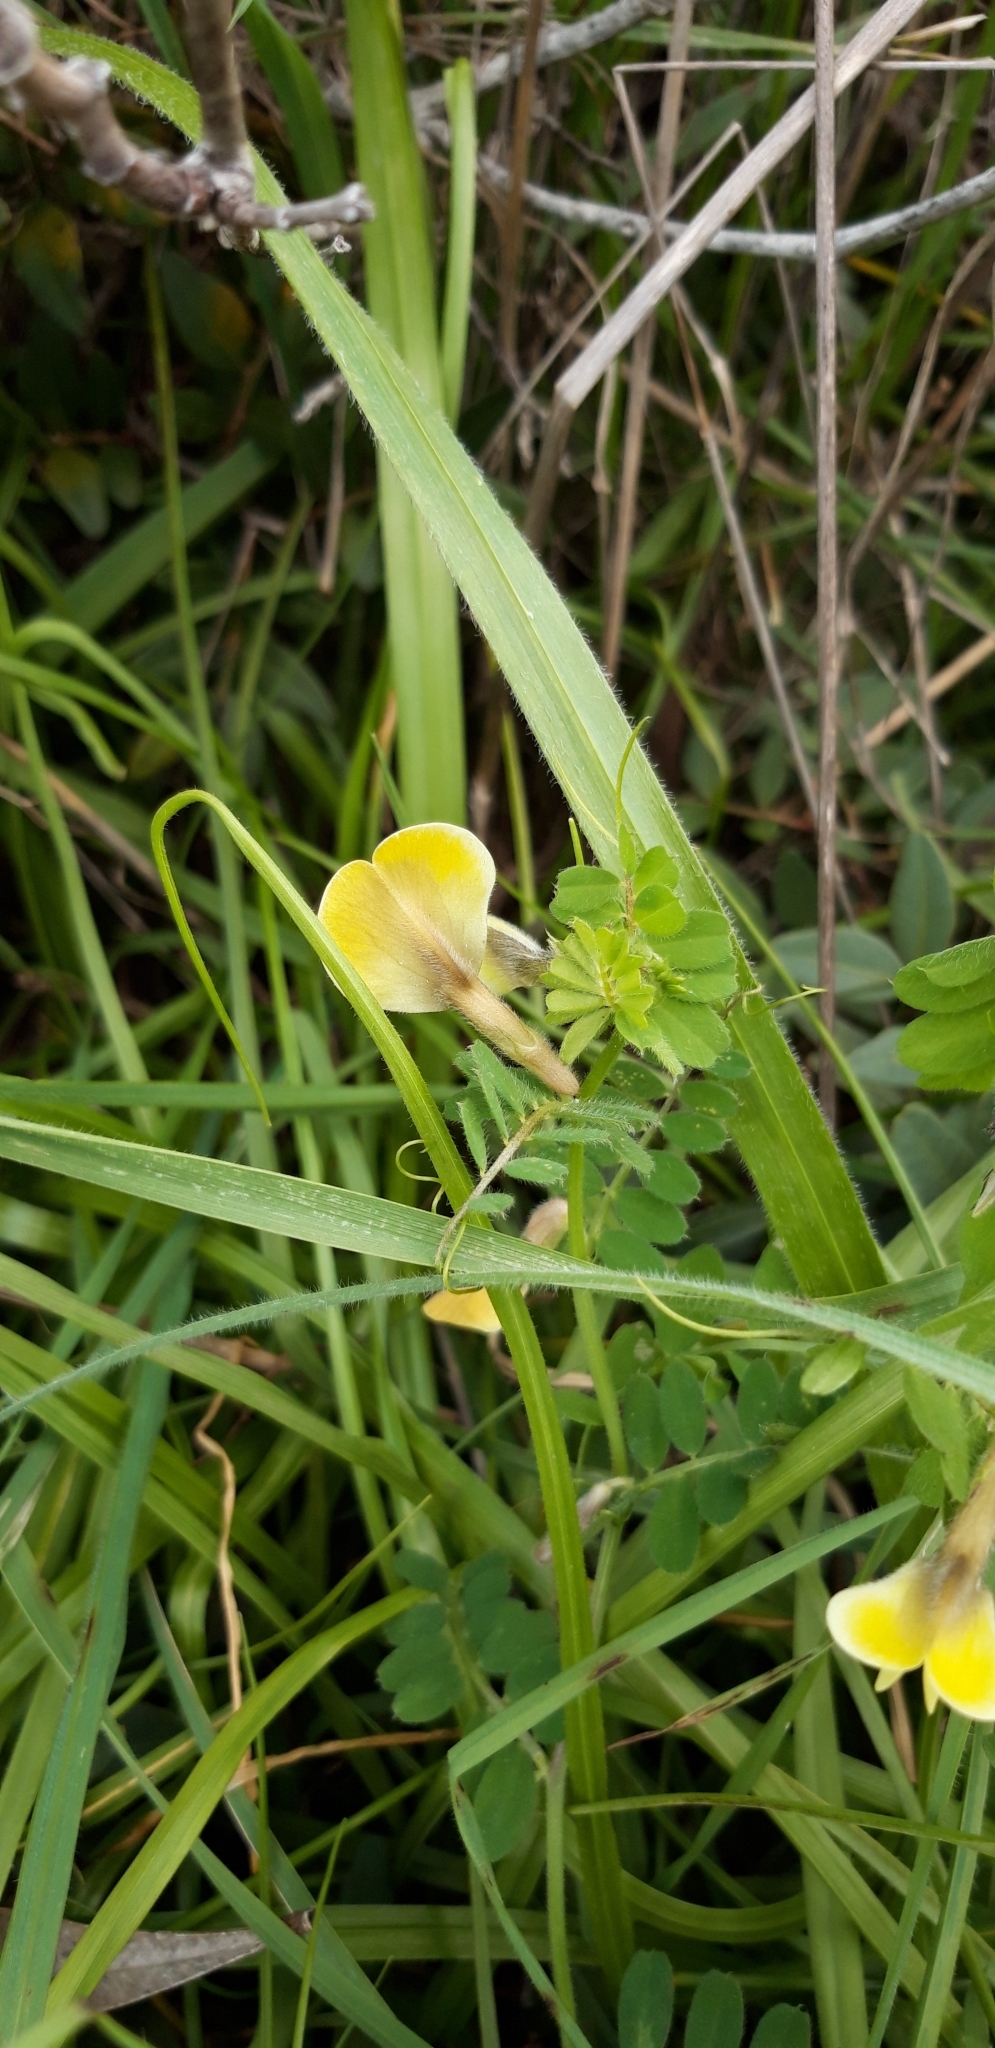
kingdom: Plantae
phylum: Tracheophyta
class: Magnoliopsida
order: Fabales
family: Fabaceae
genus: Vicia
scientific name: Vicia hybrida
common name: Hairy yellow vetch
